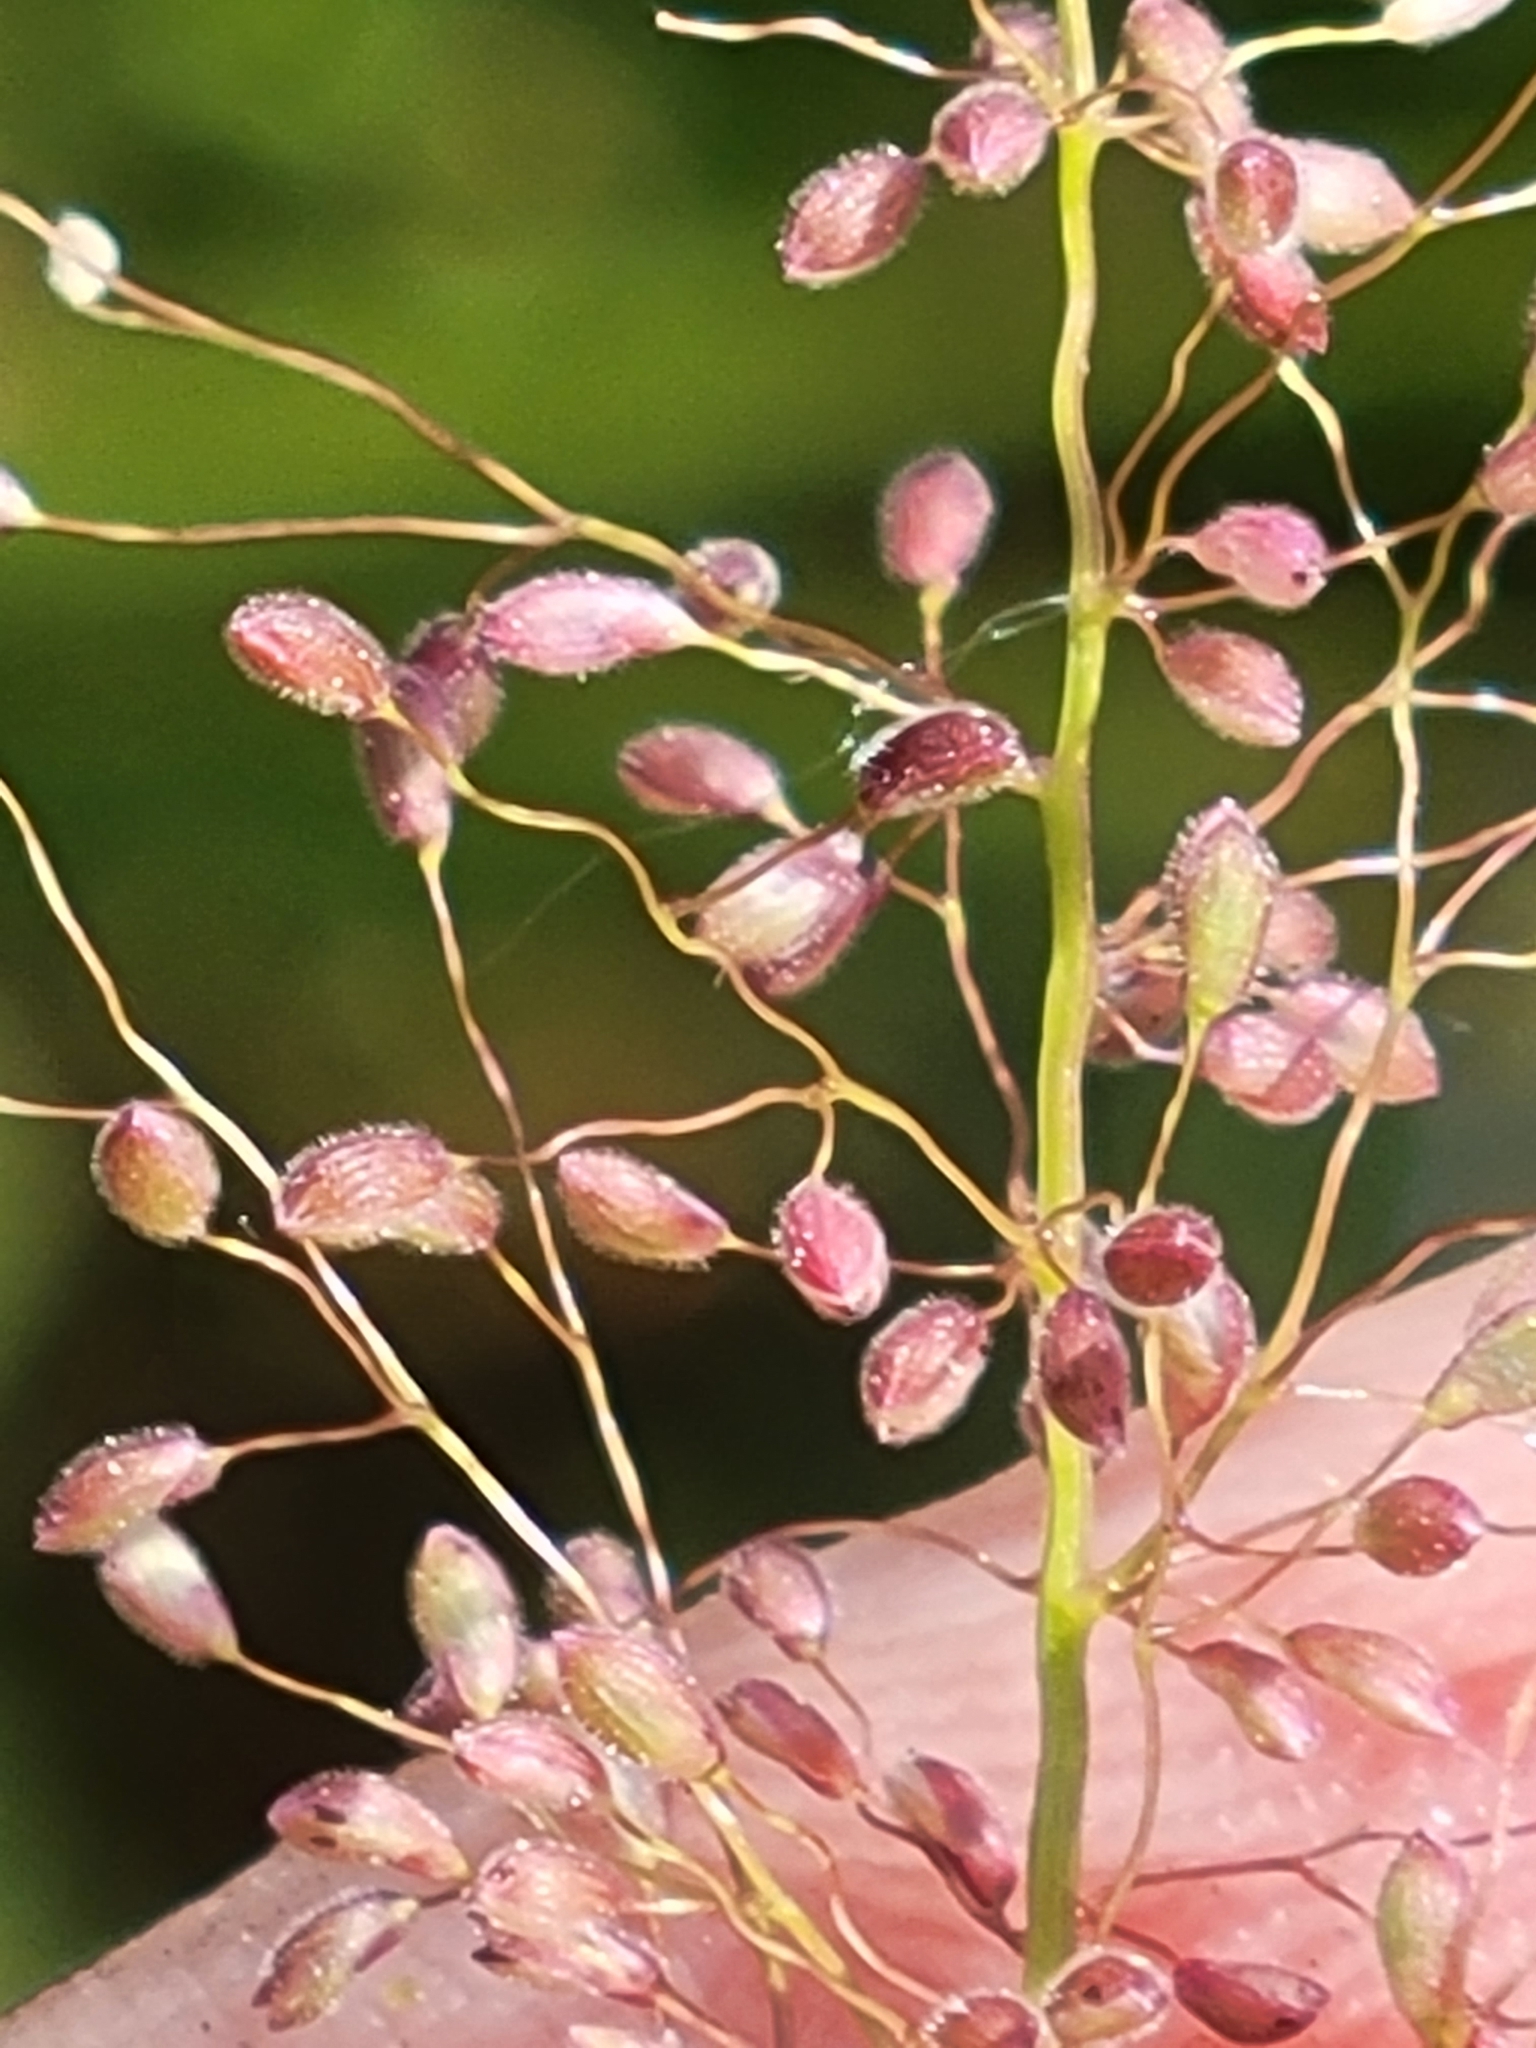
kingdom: Plantae
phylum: Tracheophyta
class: Liliopsida
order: Poales
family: Poaceae
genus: Dichanthelium
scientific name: Dichanthelium tenue
